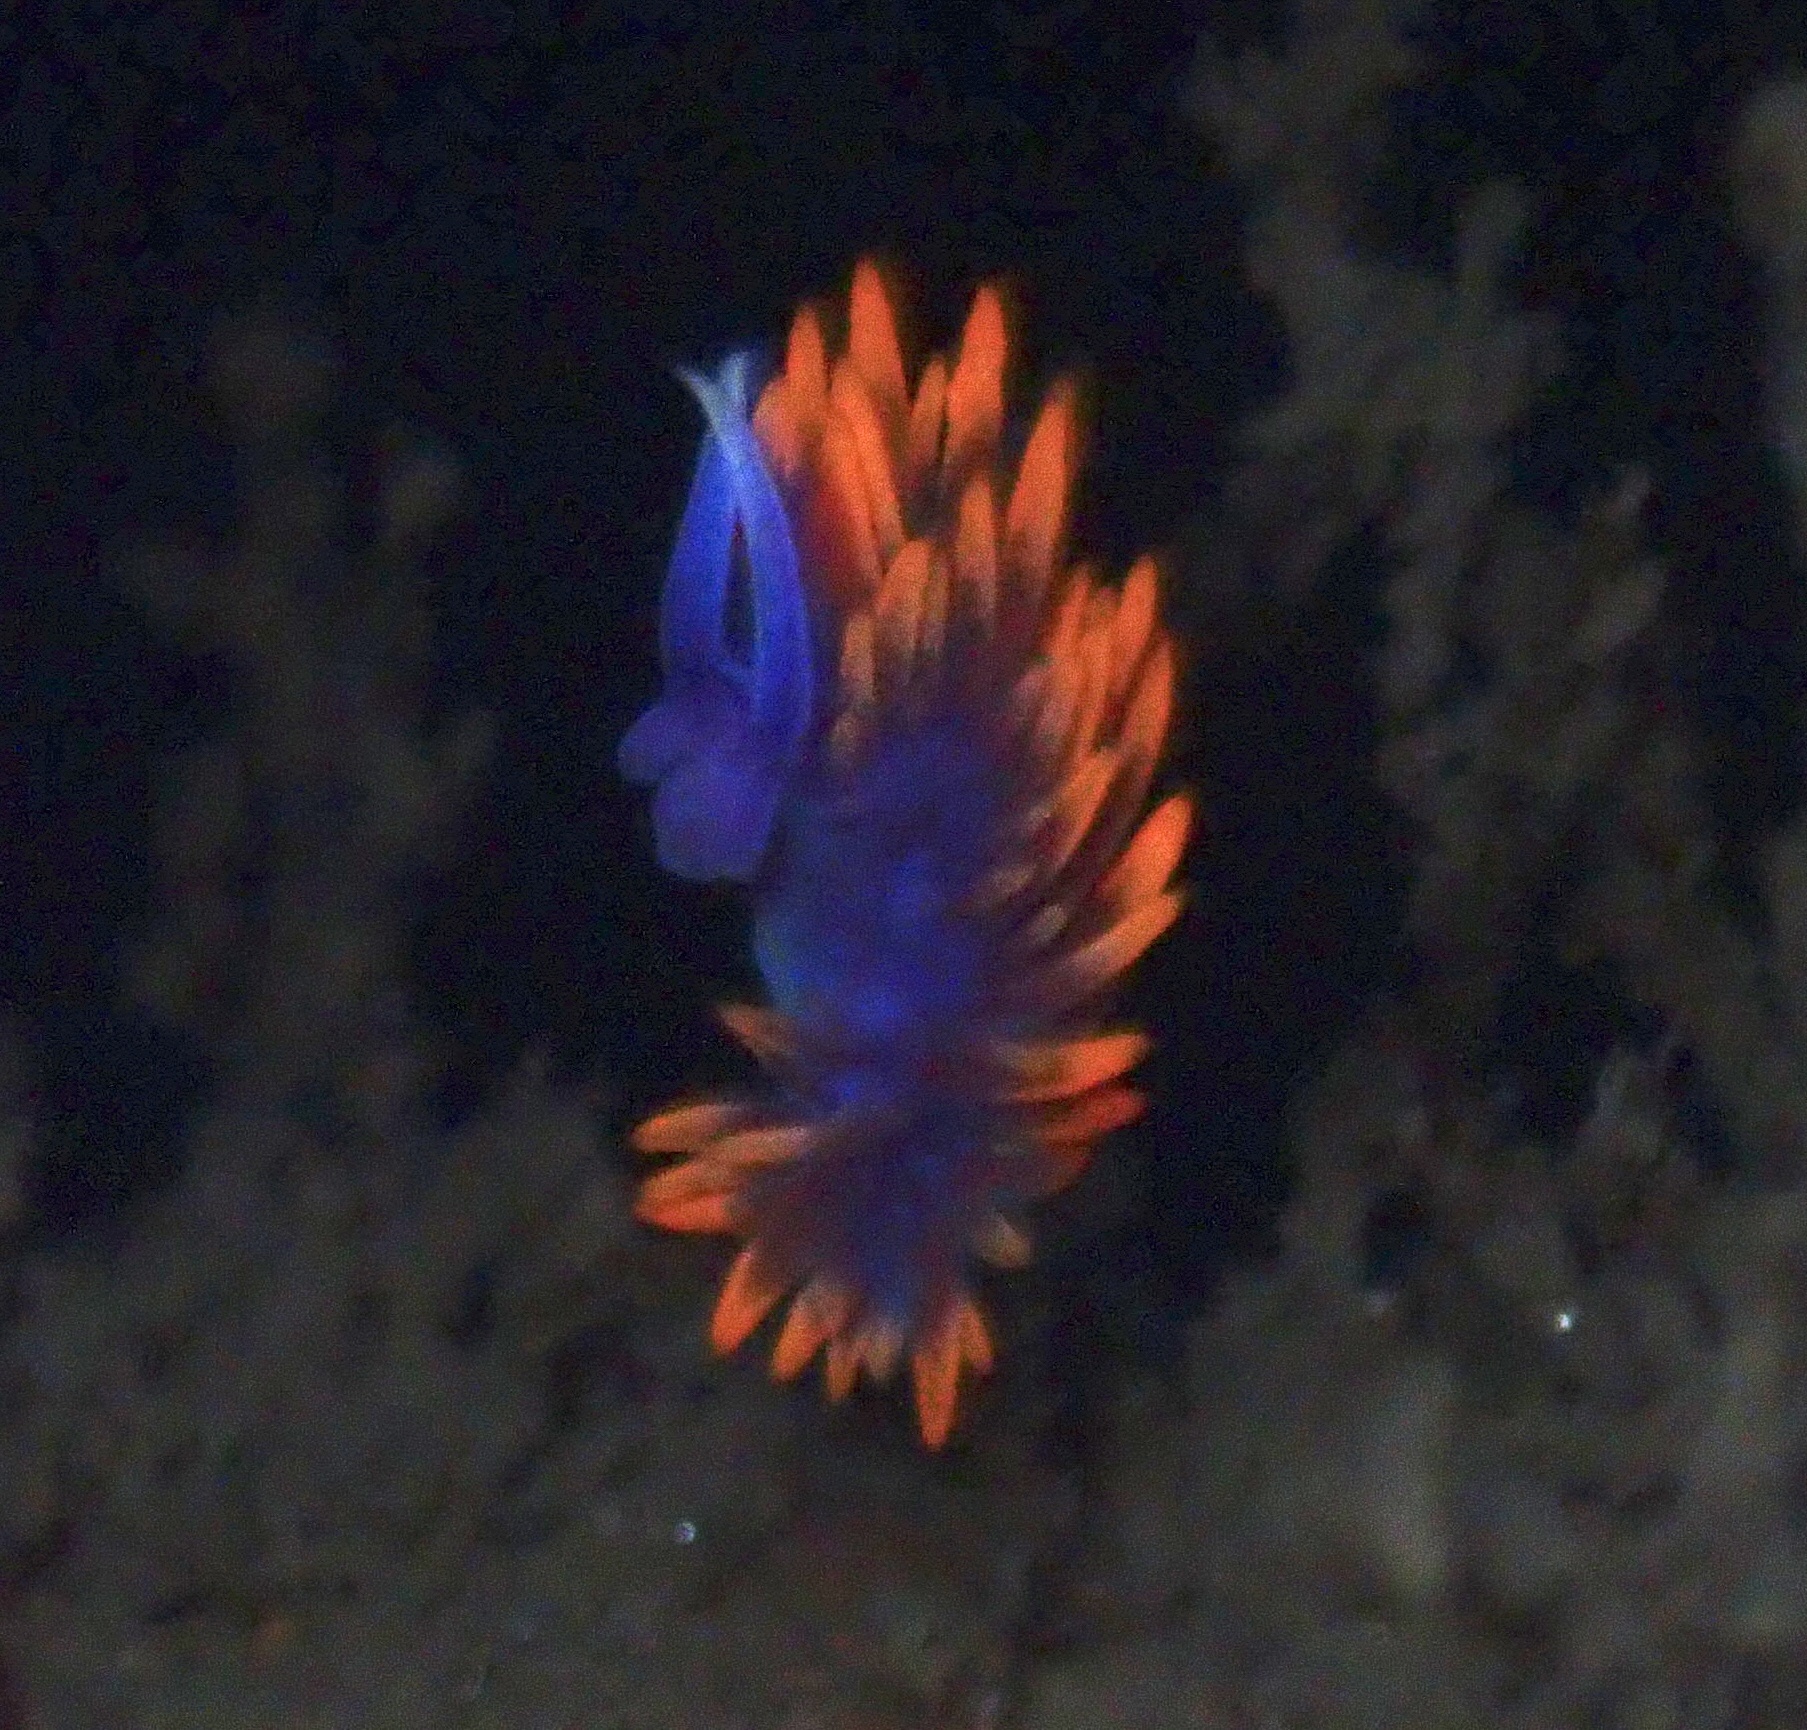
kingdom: Animalia
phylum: Mollusca
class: Gastropoda
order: Nudibranchia
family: Flabellinopsidae
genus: Flabellinopsis
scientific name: Flabellinopsis iodinea
